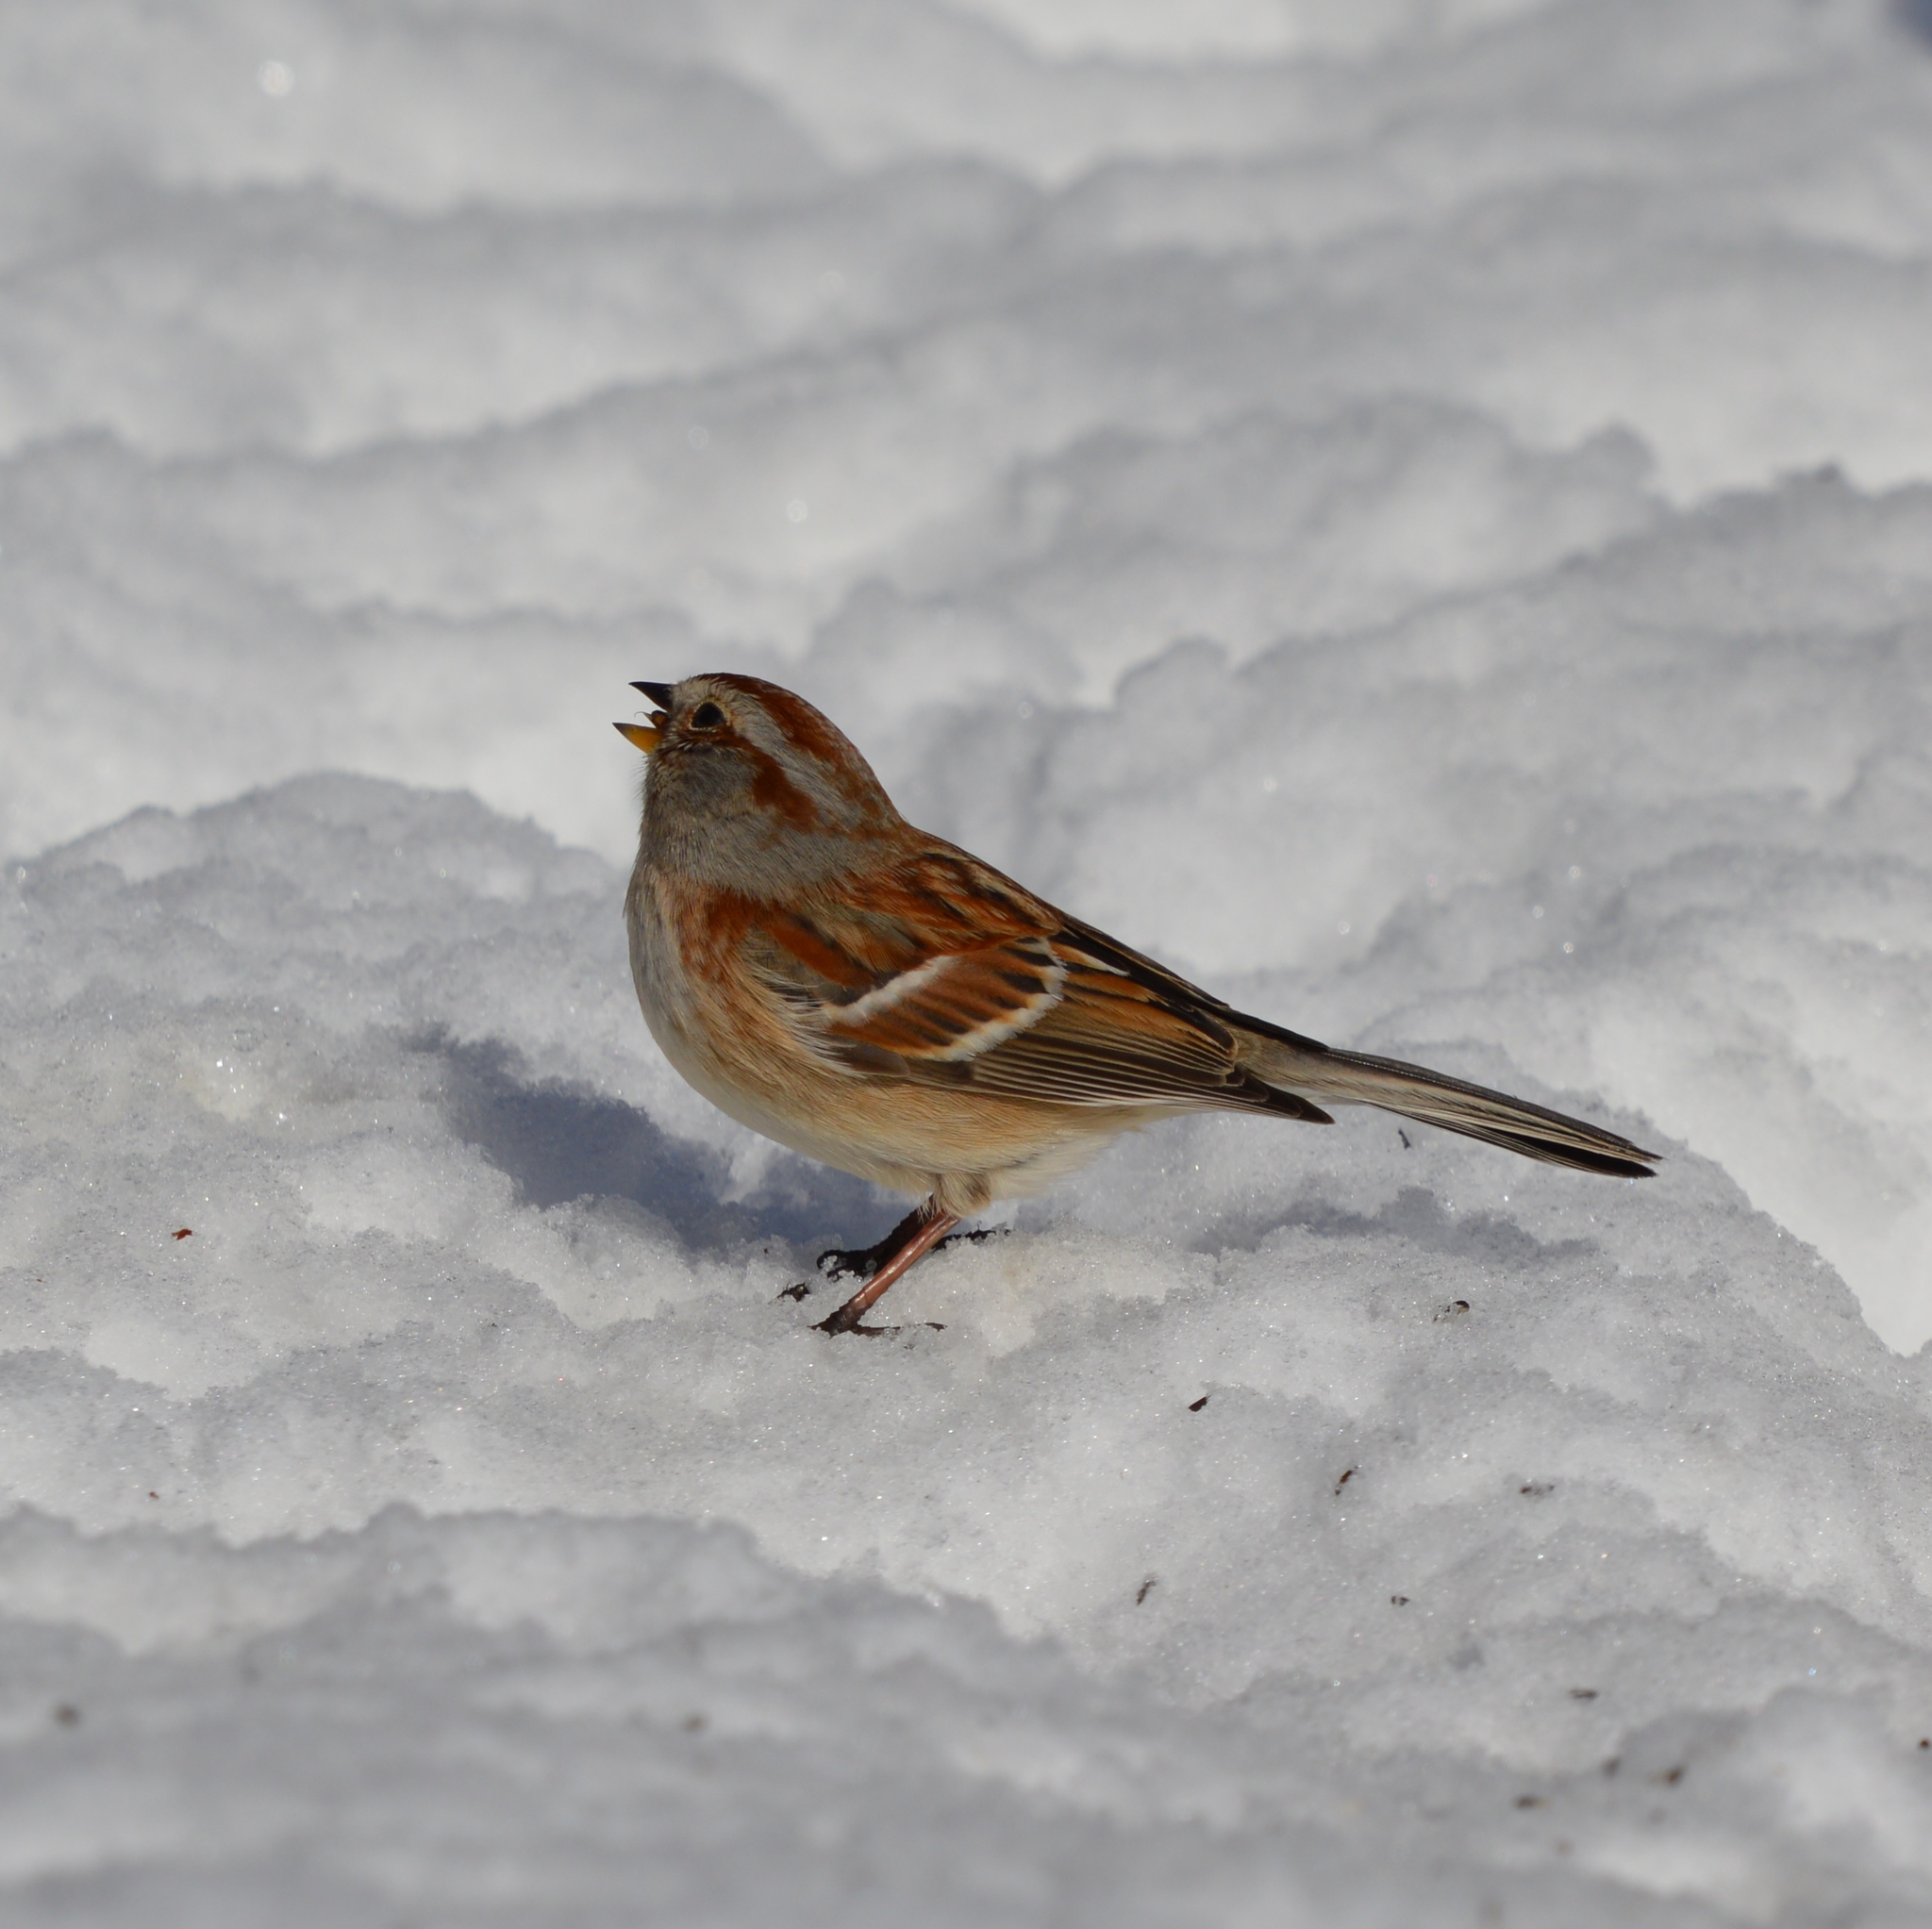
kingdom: Animalia
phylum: Chordata
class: Aves
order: Passeriformes
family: Passerellidae
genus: Spizelloides
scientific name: Spizelloides arborea
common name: American tree sparrow
